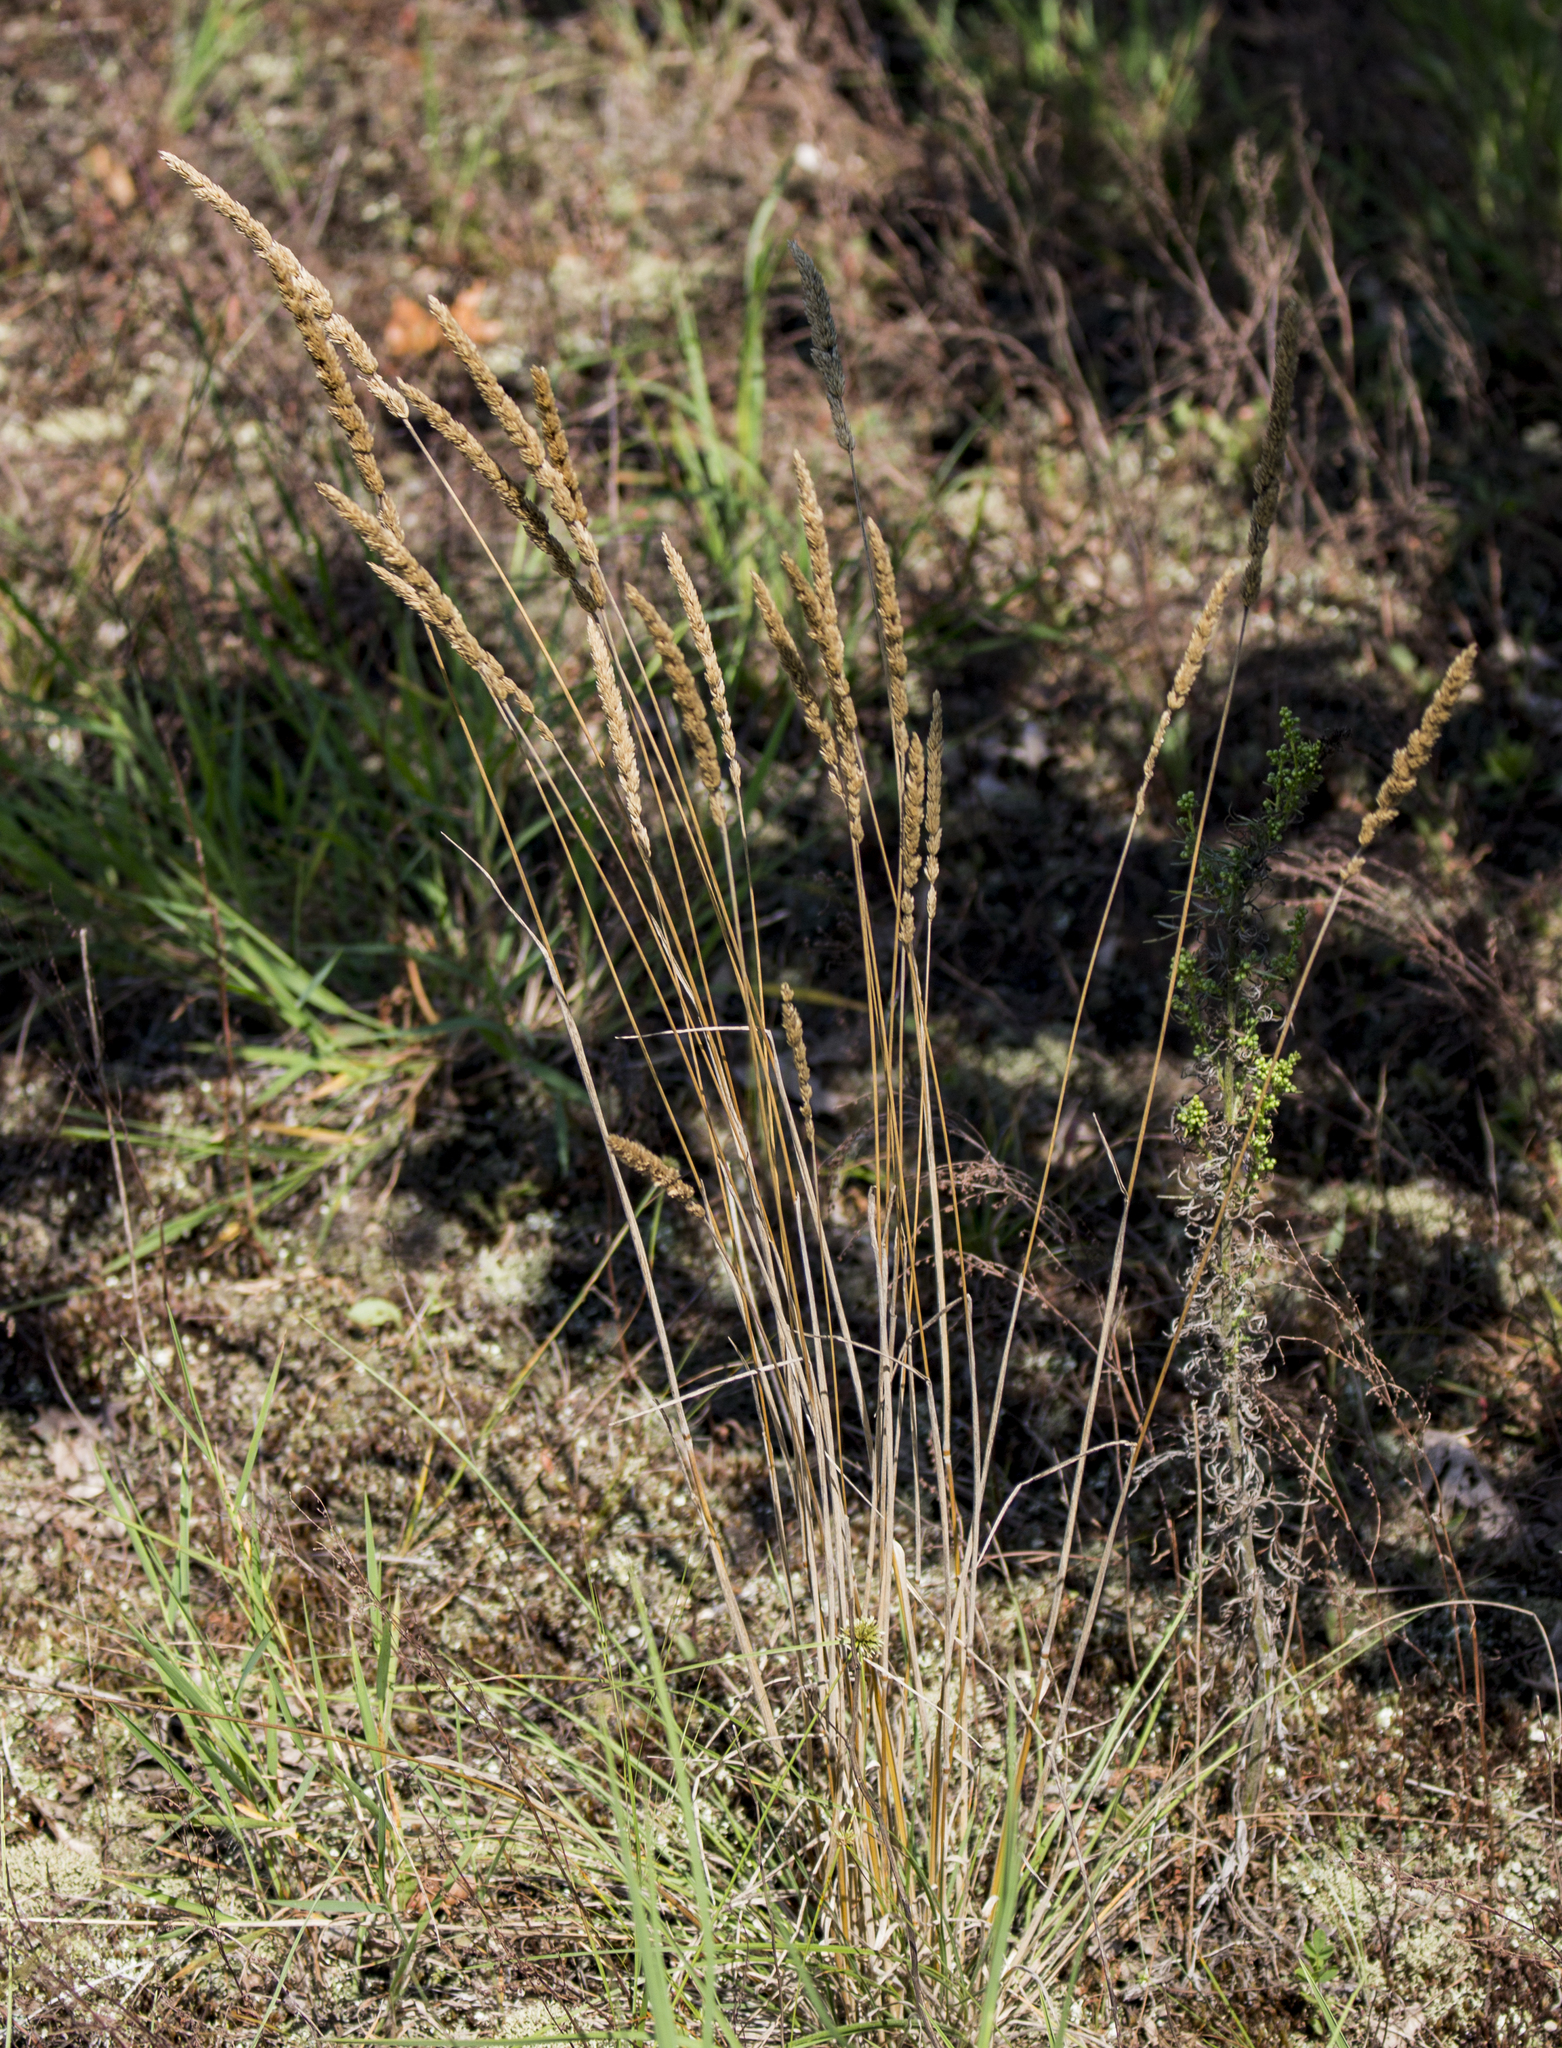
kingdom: Plantae
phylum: Tracheophyta
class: Liliopsida
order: Poales
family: Poaceae
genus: Koeleria
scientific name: Koeleria macrantha
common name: Crested hair-grass
